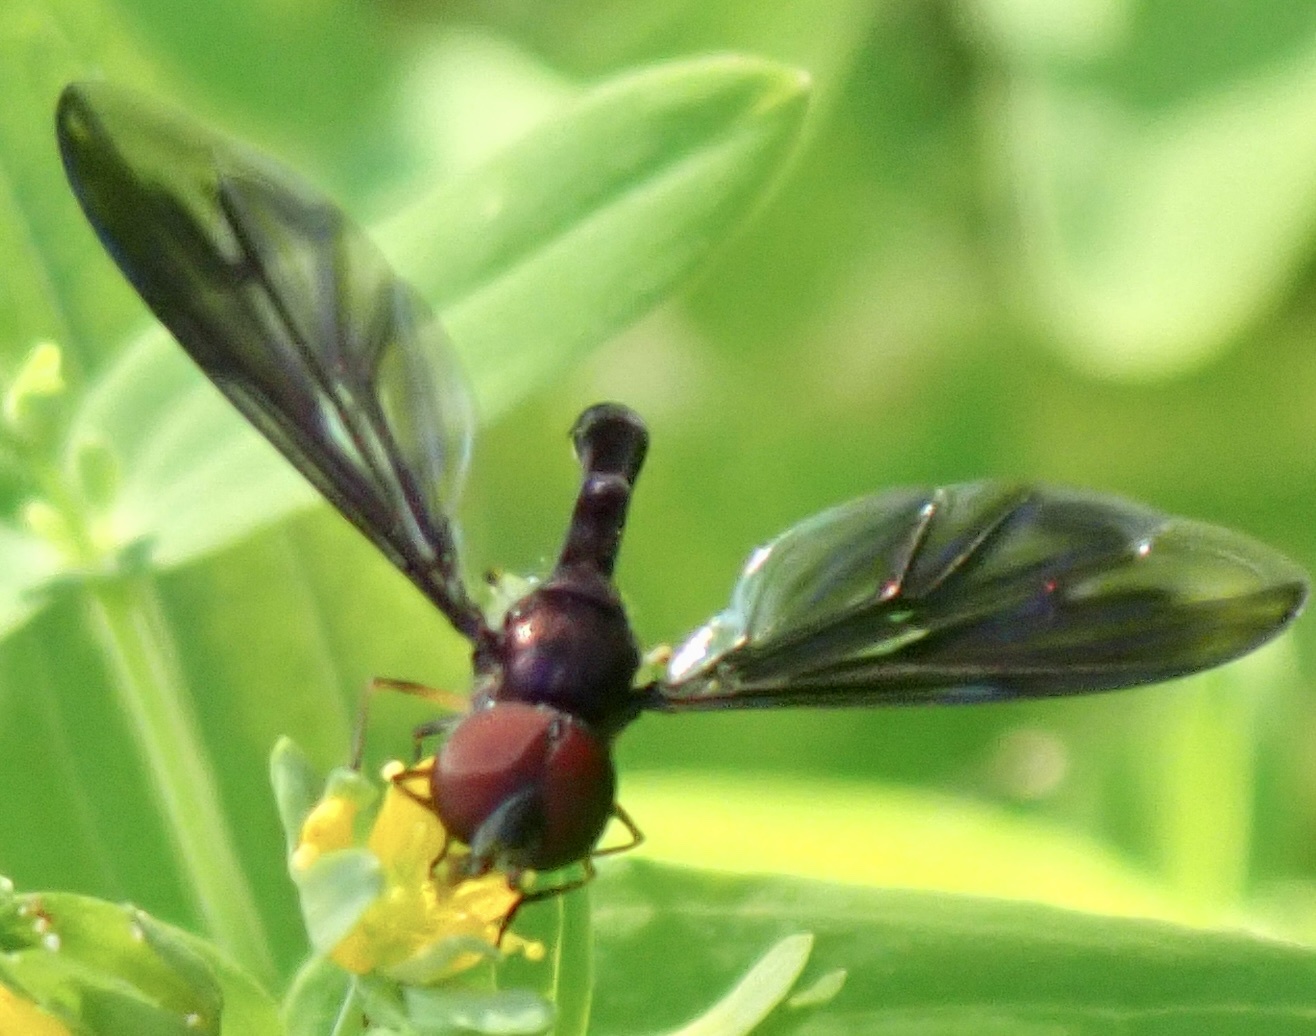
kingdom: Animalia
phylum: Arthropoda
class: Insecta
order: Diptera
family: Syrphidae
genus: Ocyptamus
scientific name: Ocyptamus fuscipennis
